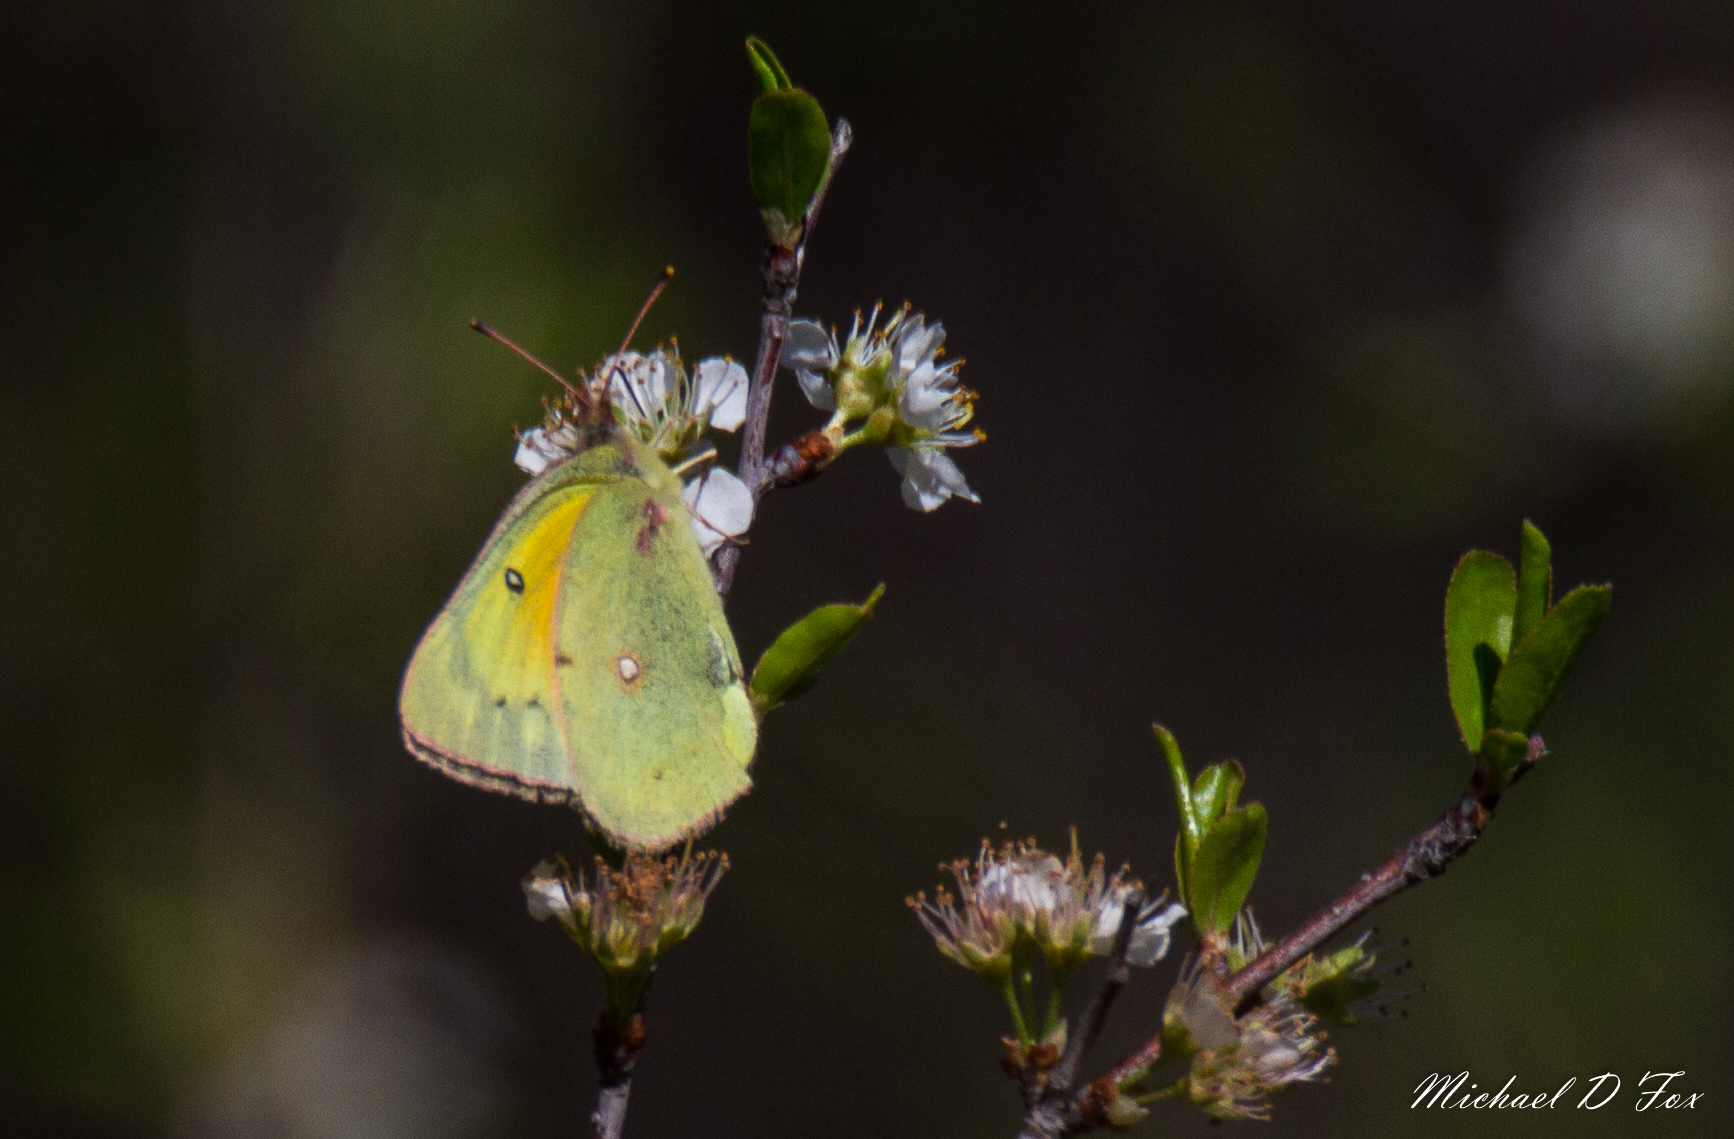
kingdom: Animalia
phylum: Arthropoda
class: Insecta
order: Lepidoptera
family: Pieridae
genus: Colias
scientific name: Colias eurytheme
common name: Alfalfa butterfly
